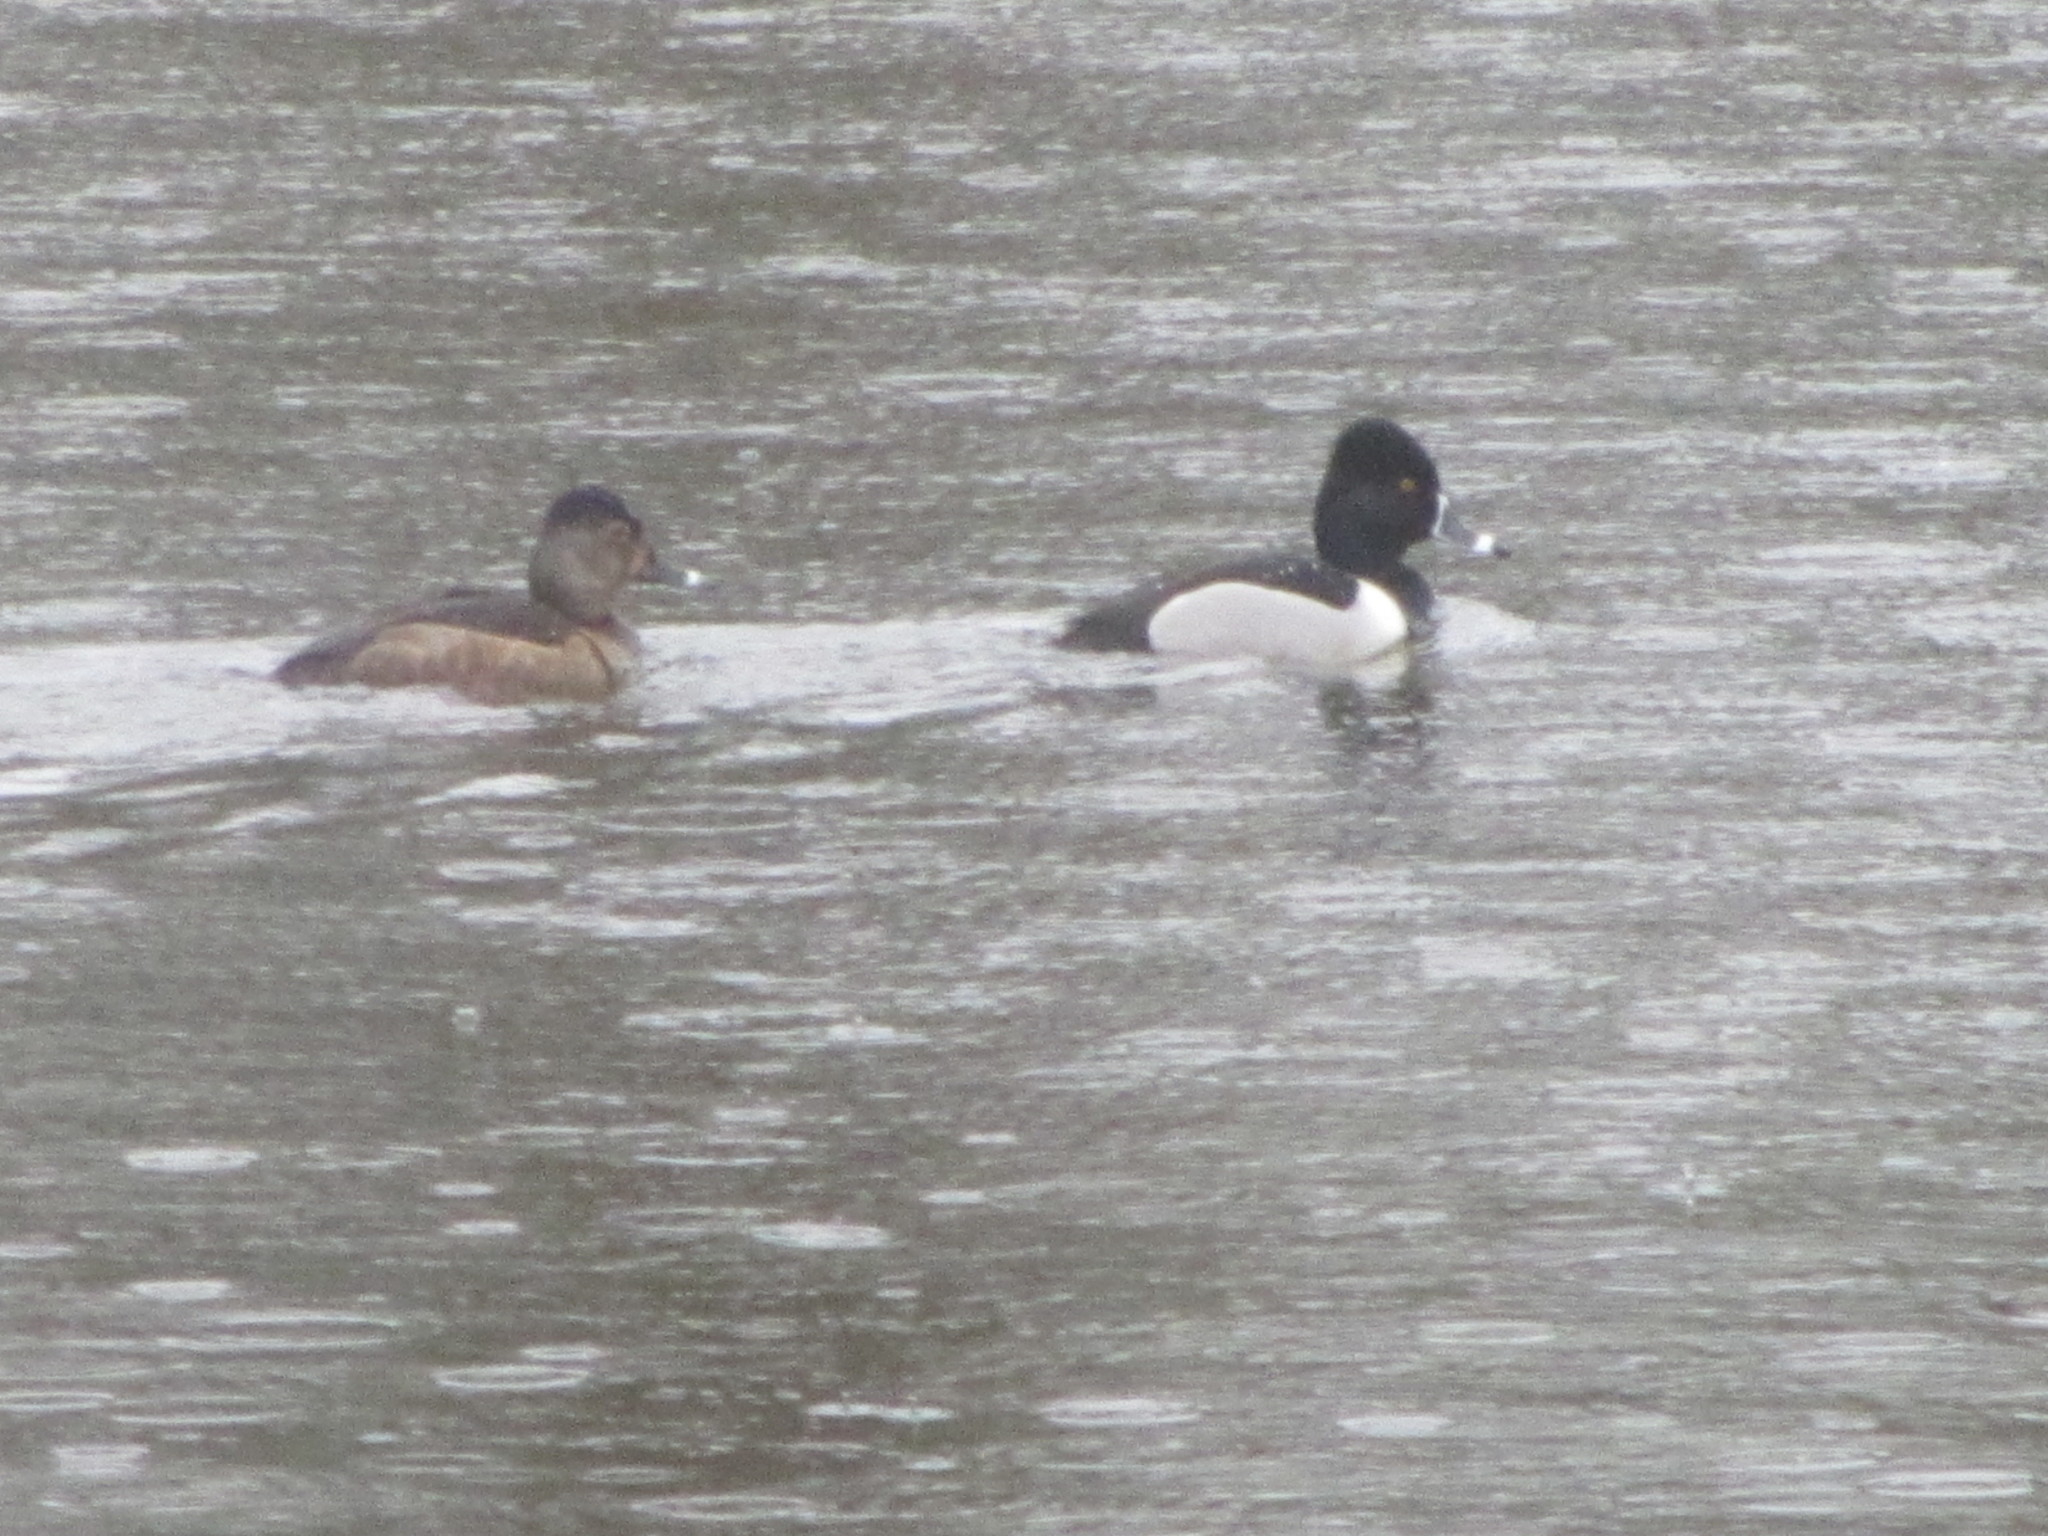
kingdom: Animalia
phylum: Chordata
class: Aves
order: Anseriformes
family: Anatidae
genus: Aythya
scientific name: Aythya collaris
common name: Ring-necked duck
